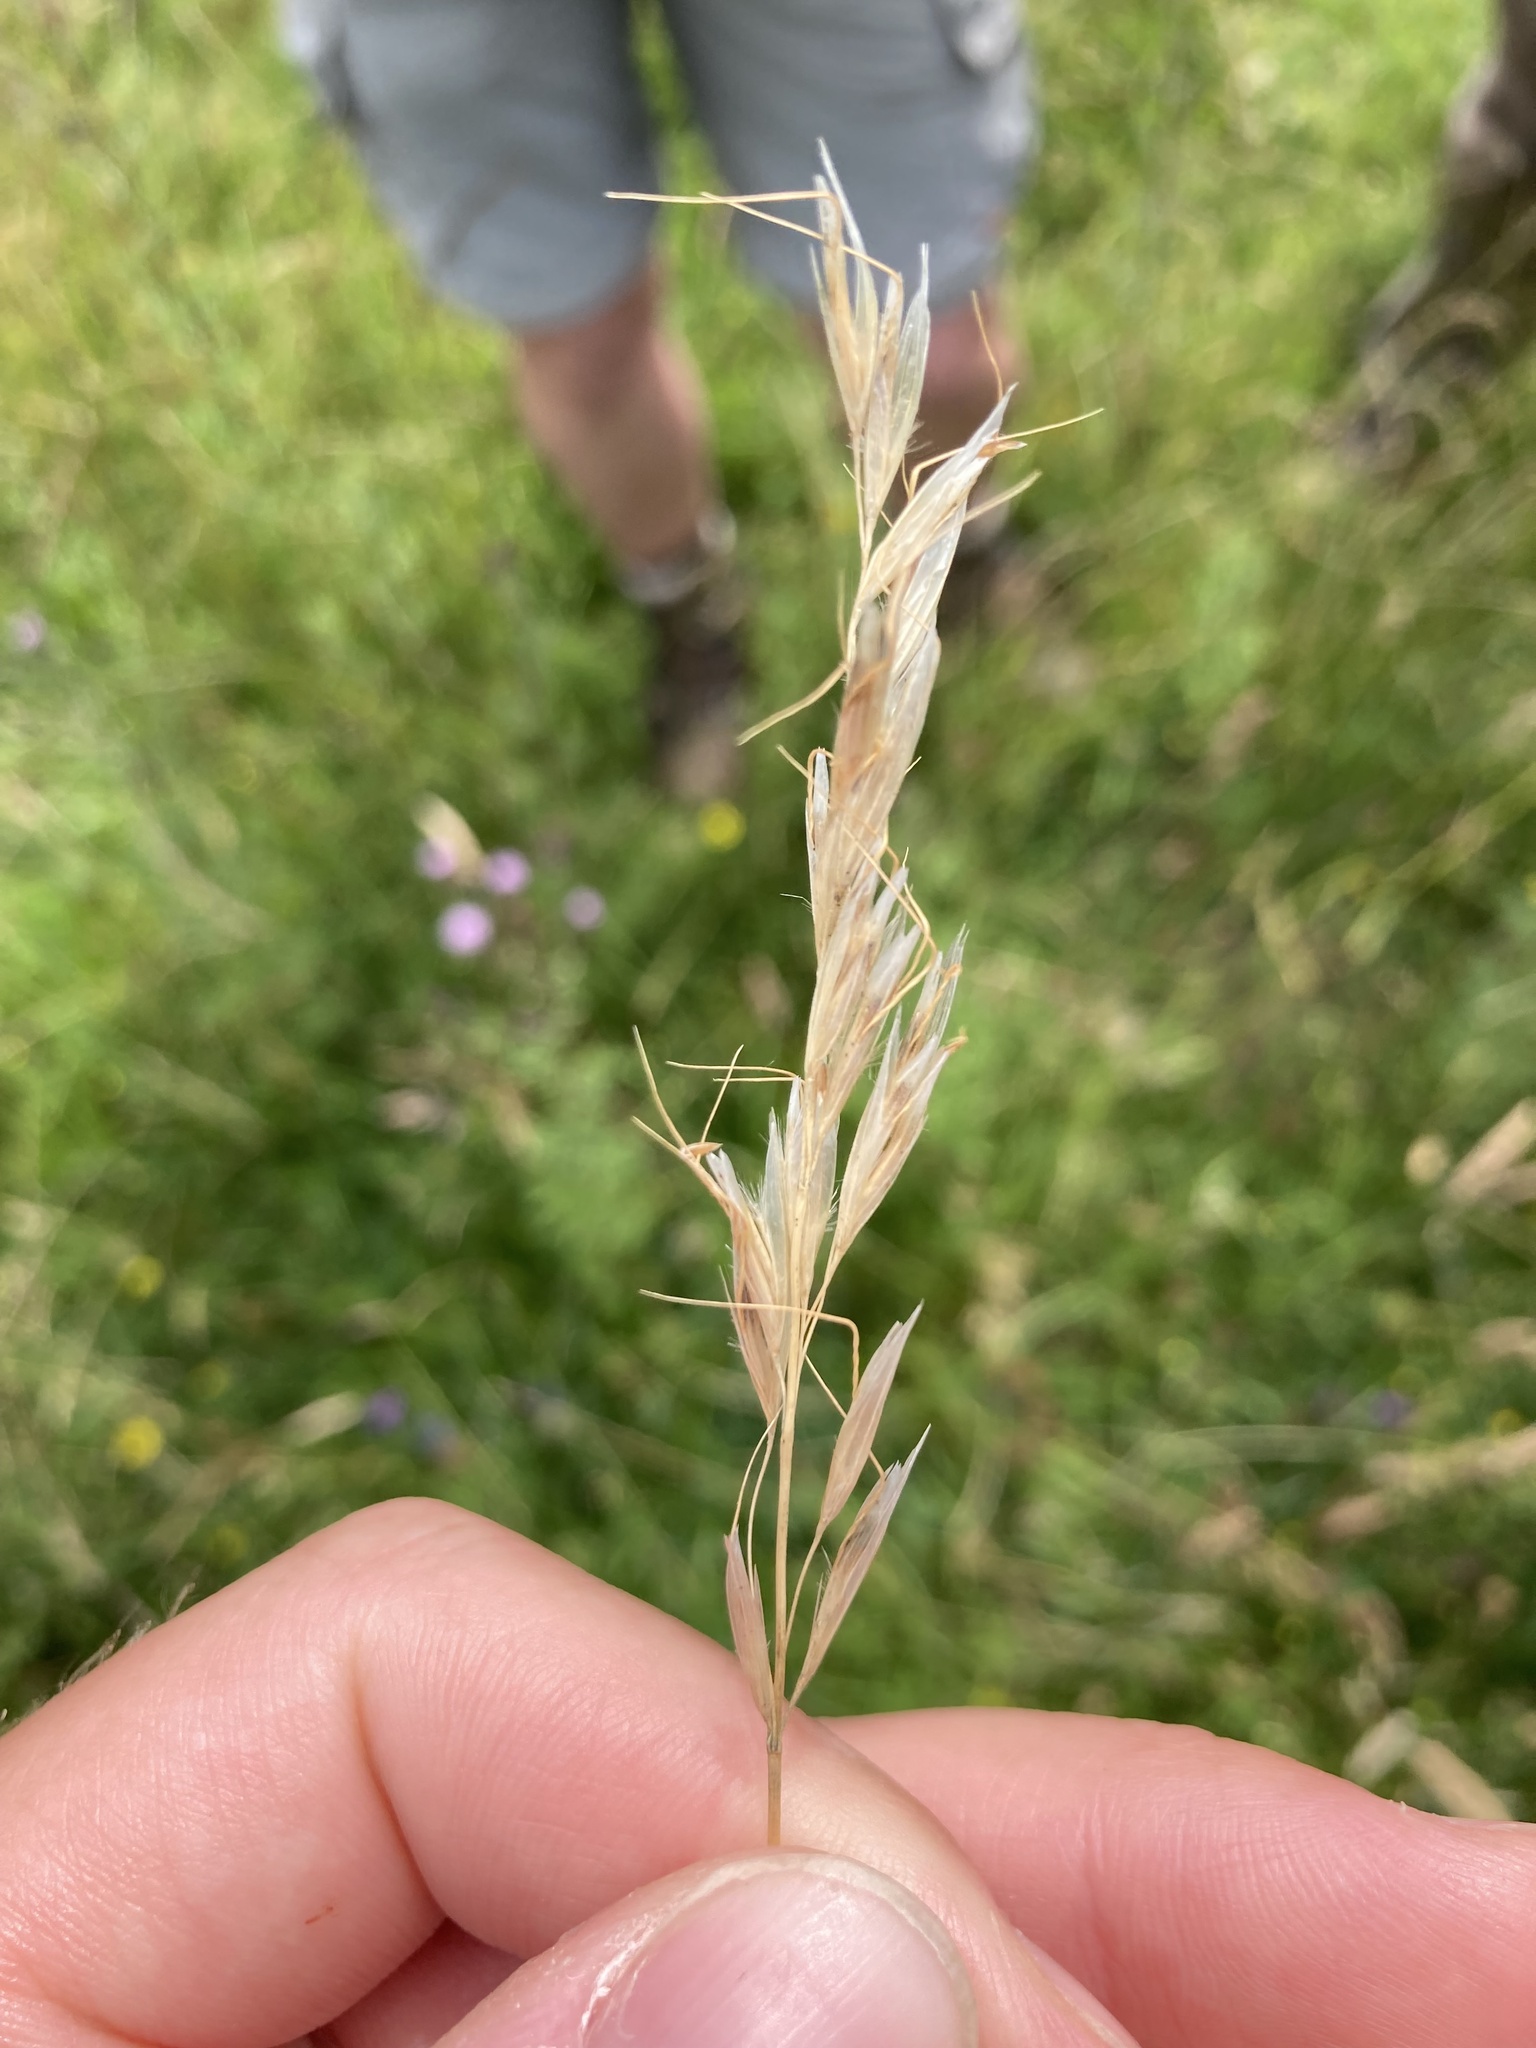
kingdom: Plantae
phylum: Tracheophyta
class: Liliopsida
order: Poales
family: Poaceae
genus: Avenula
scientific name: Avenula pubescens
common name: Downy alpine oatgrass
